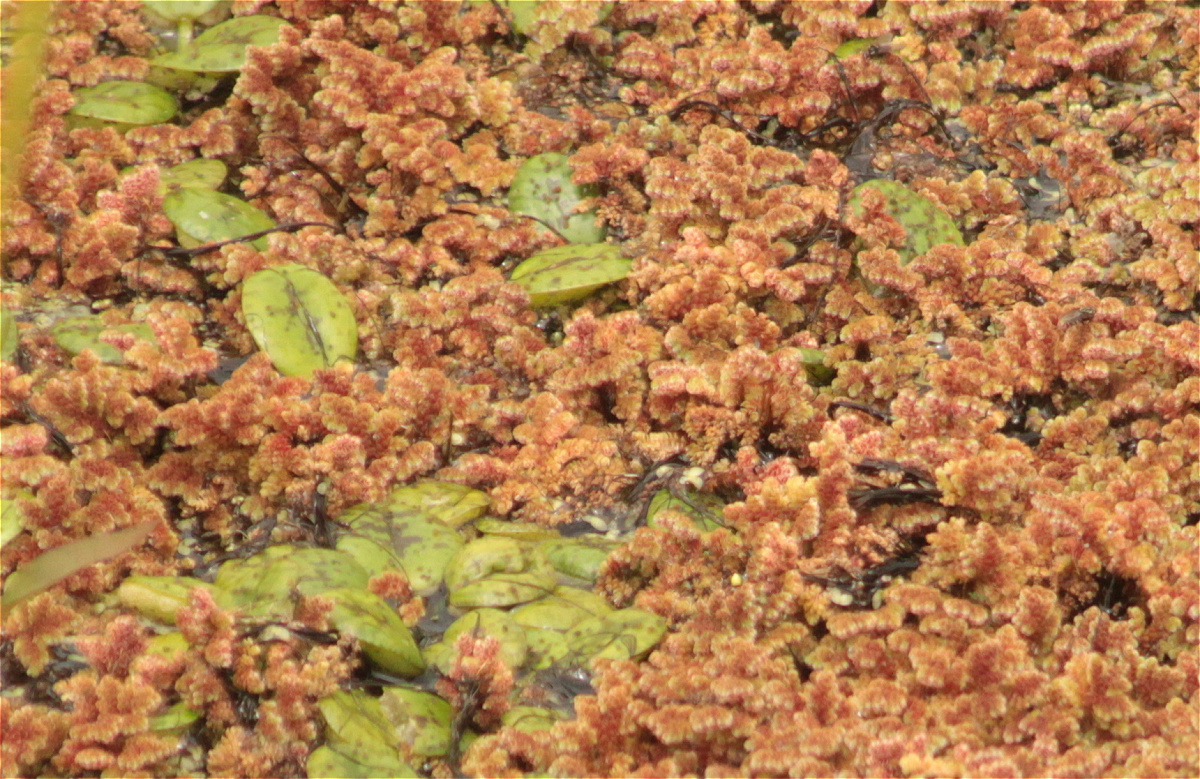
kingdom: Plantae
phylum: Tracheophyta
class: Polypodiopsida
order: Salviniales
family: Salviniaceae
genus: Azolla
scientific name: Azolla filiculoides
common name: Water fern
